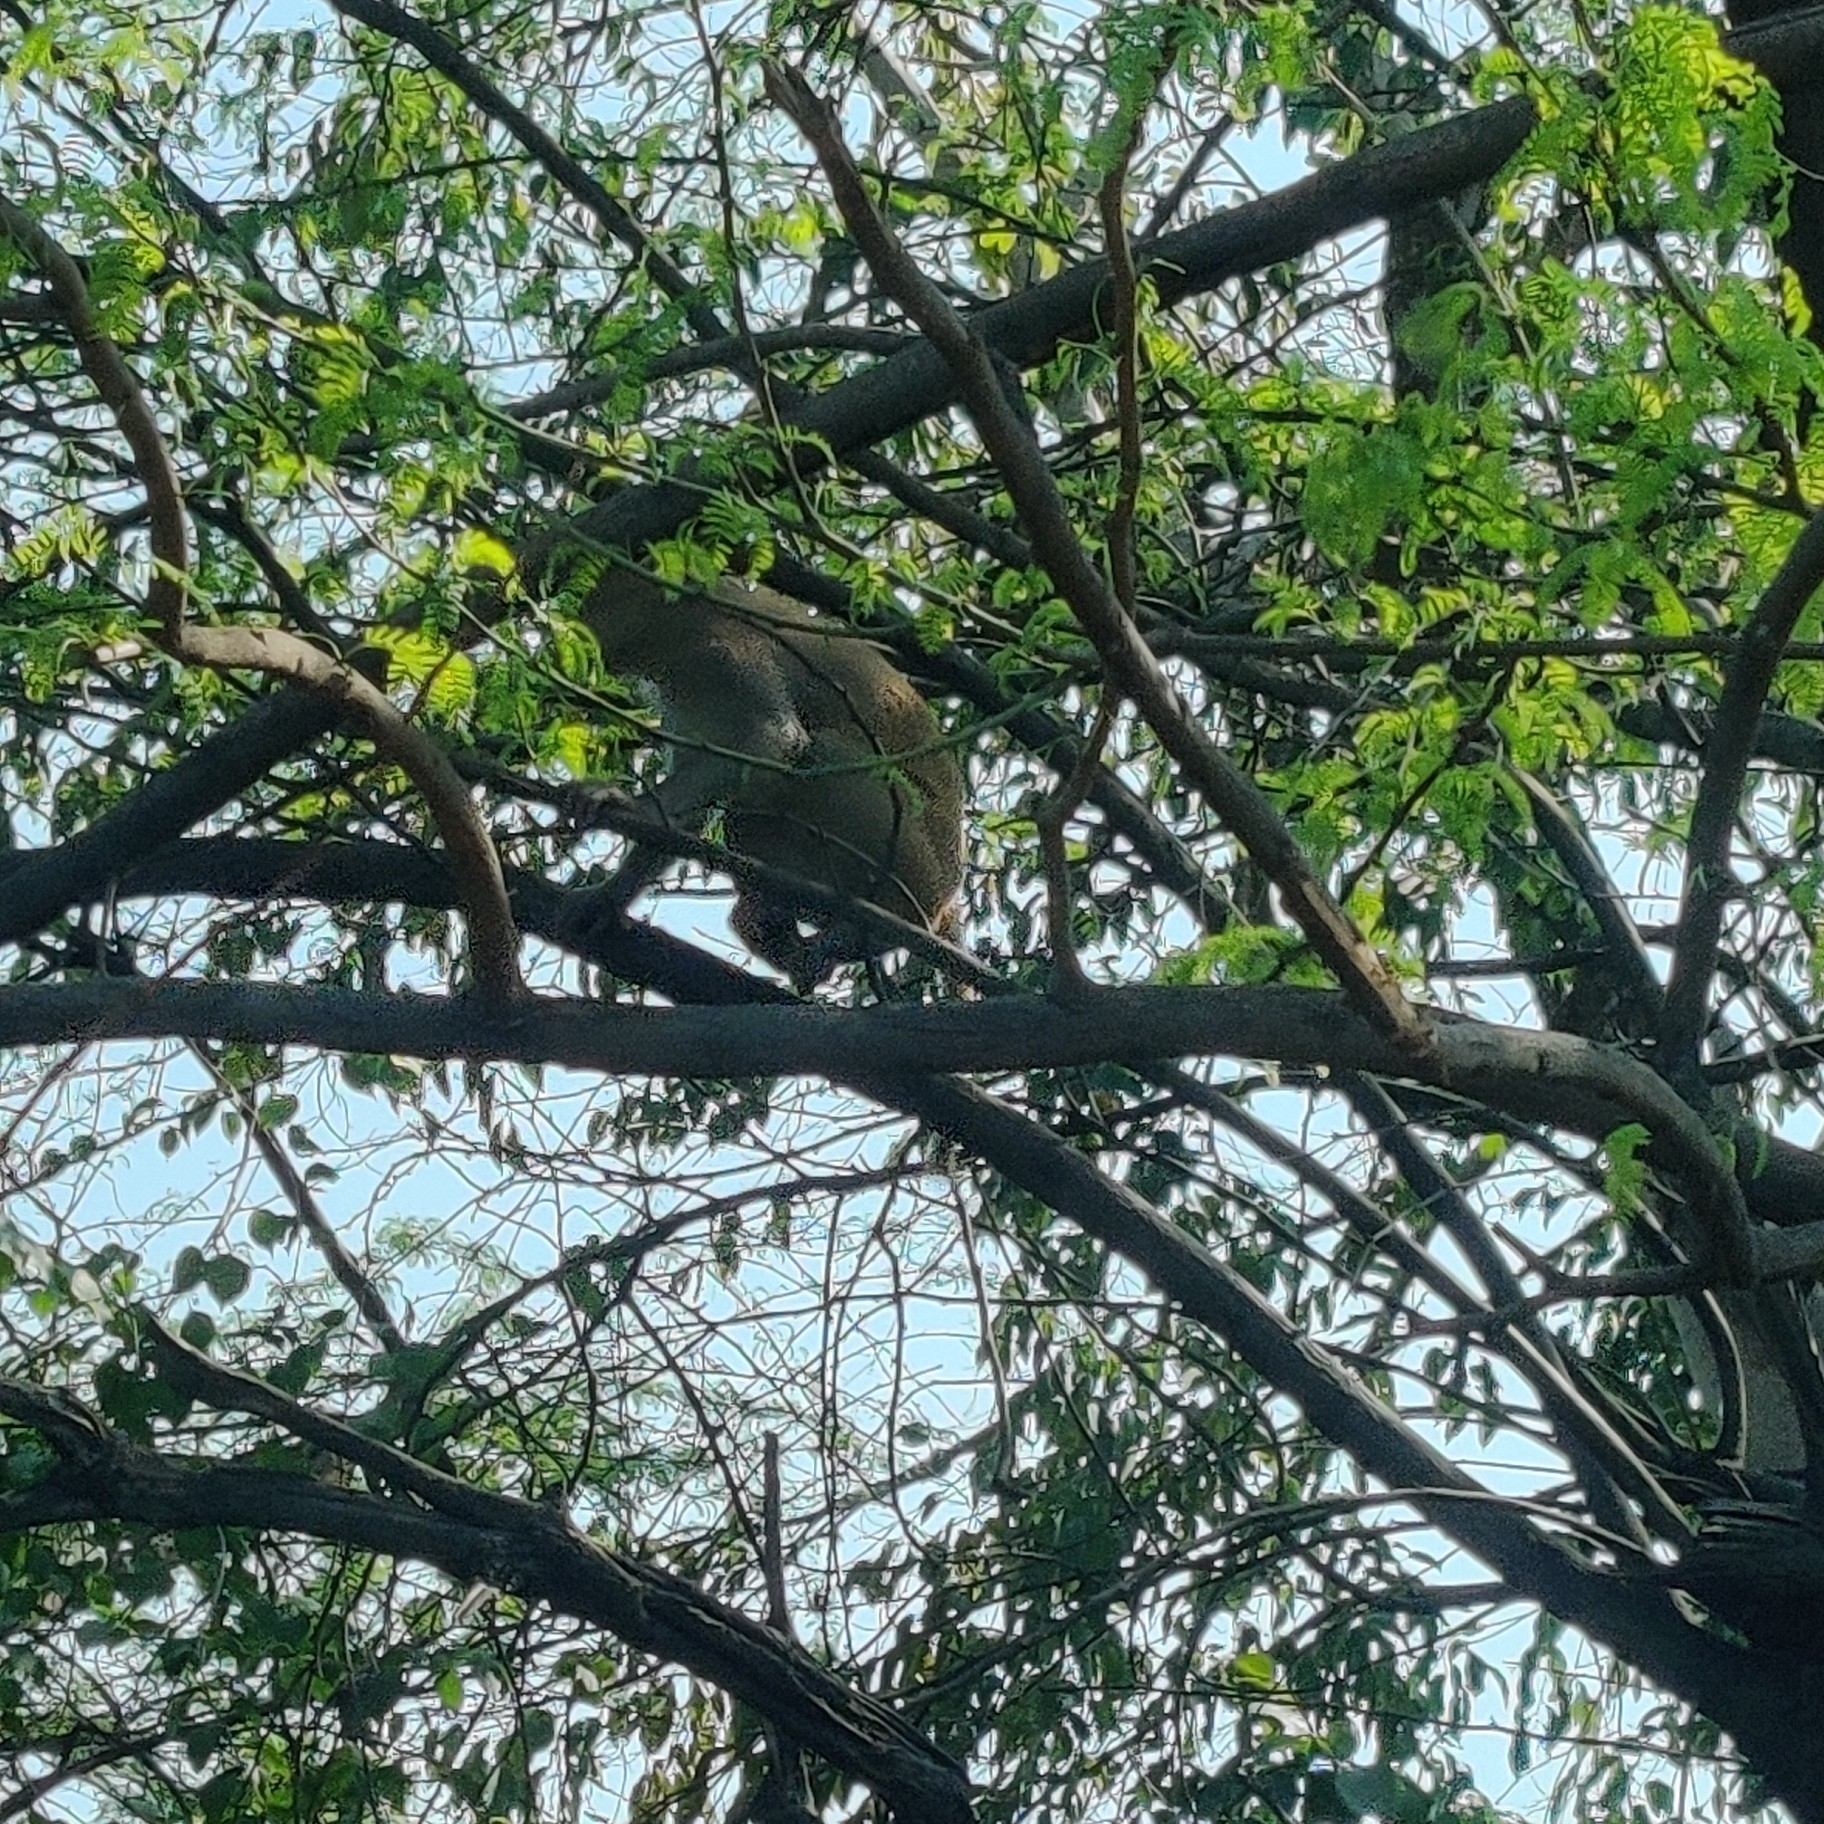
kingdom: Animalia
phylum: Chordata
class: Mammalia
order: Primates
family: Cercopithecidae
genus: Macaca
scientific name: Macaca mulatta
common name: Rhesus monkey
